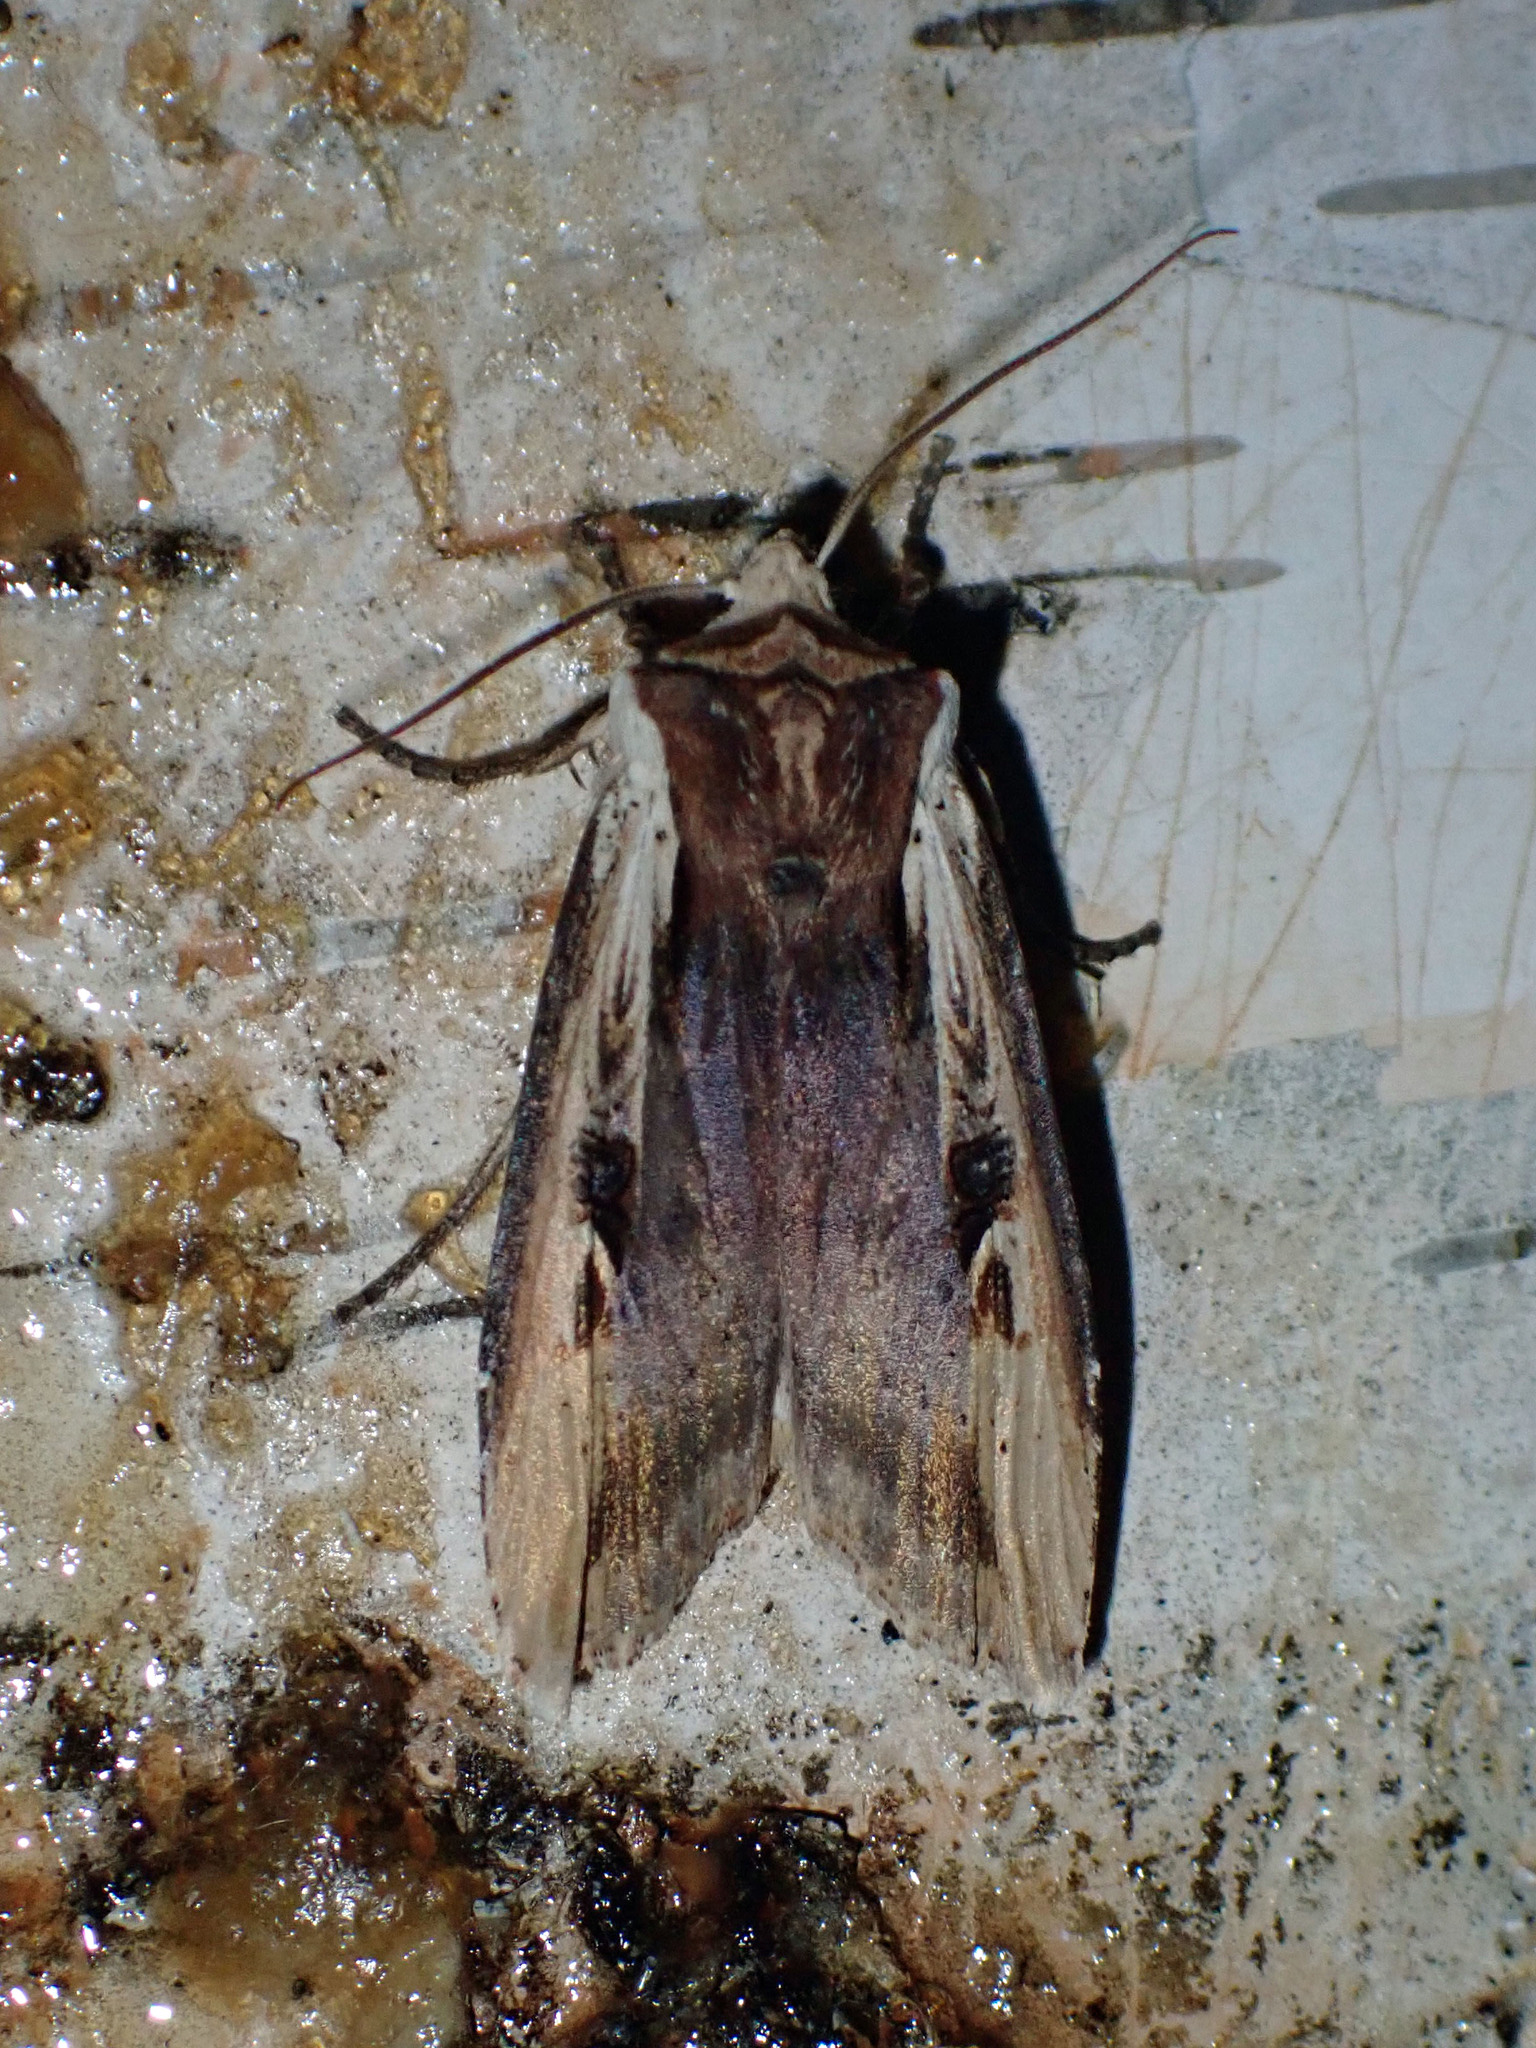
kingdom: Animalia
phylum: Arthropoda
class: Insecta
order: Lepidoptera
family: Noctuidae
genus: Xylena
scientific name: Xylena curvimacula
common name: Dot-and-dash swordgrass moth
